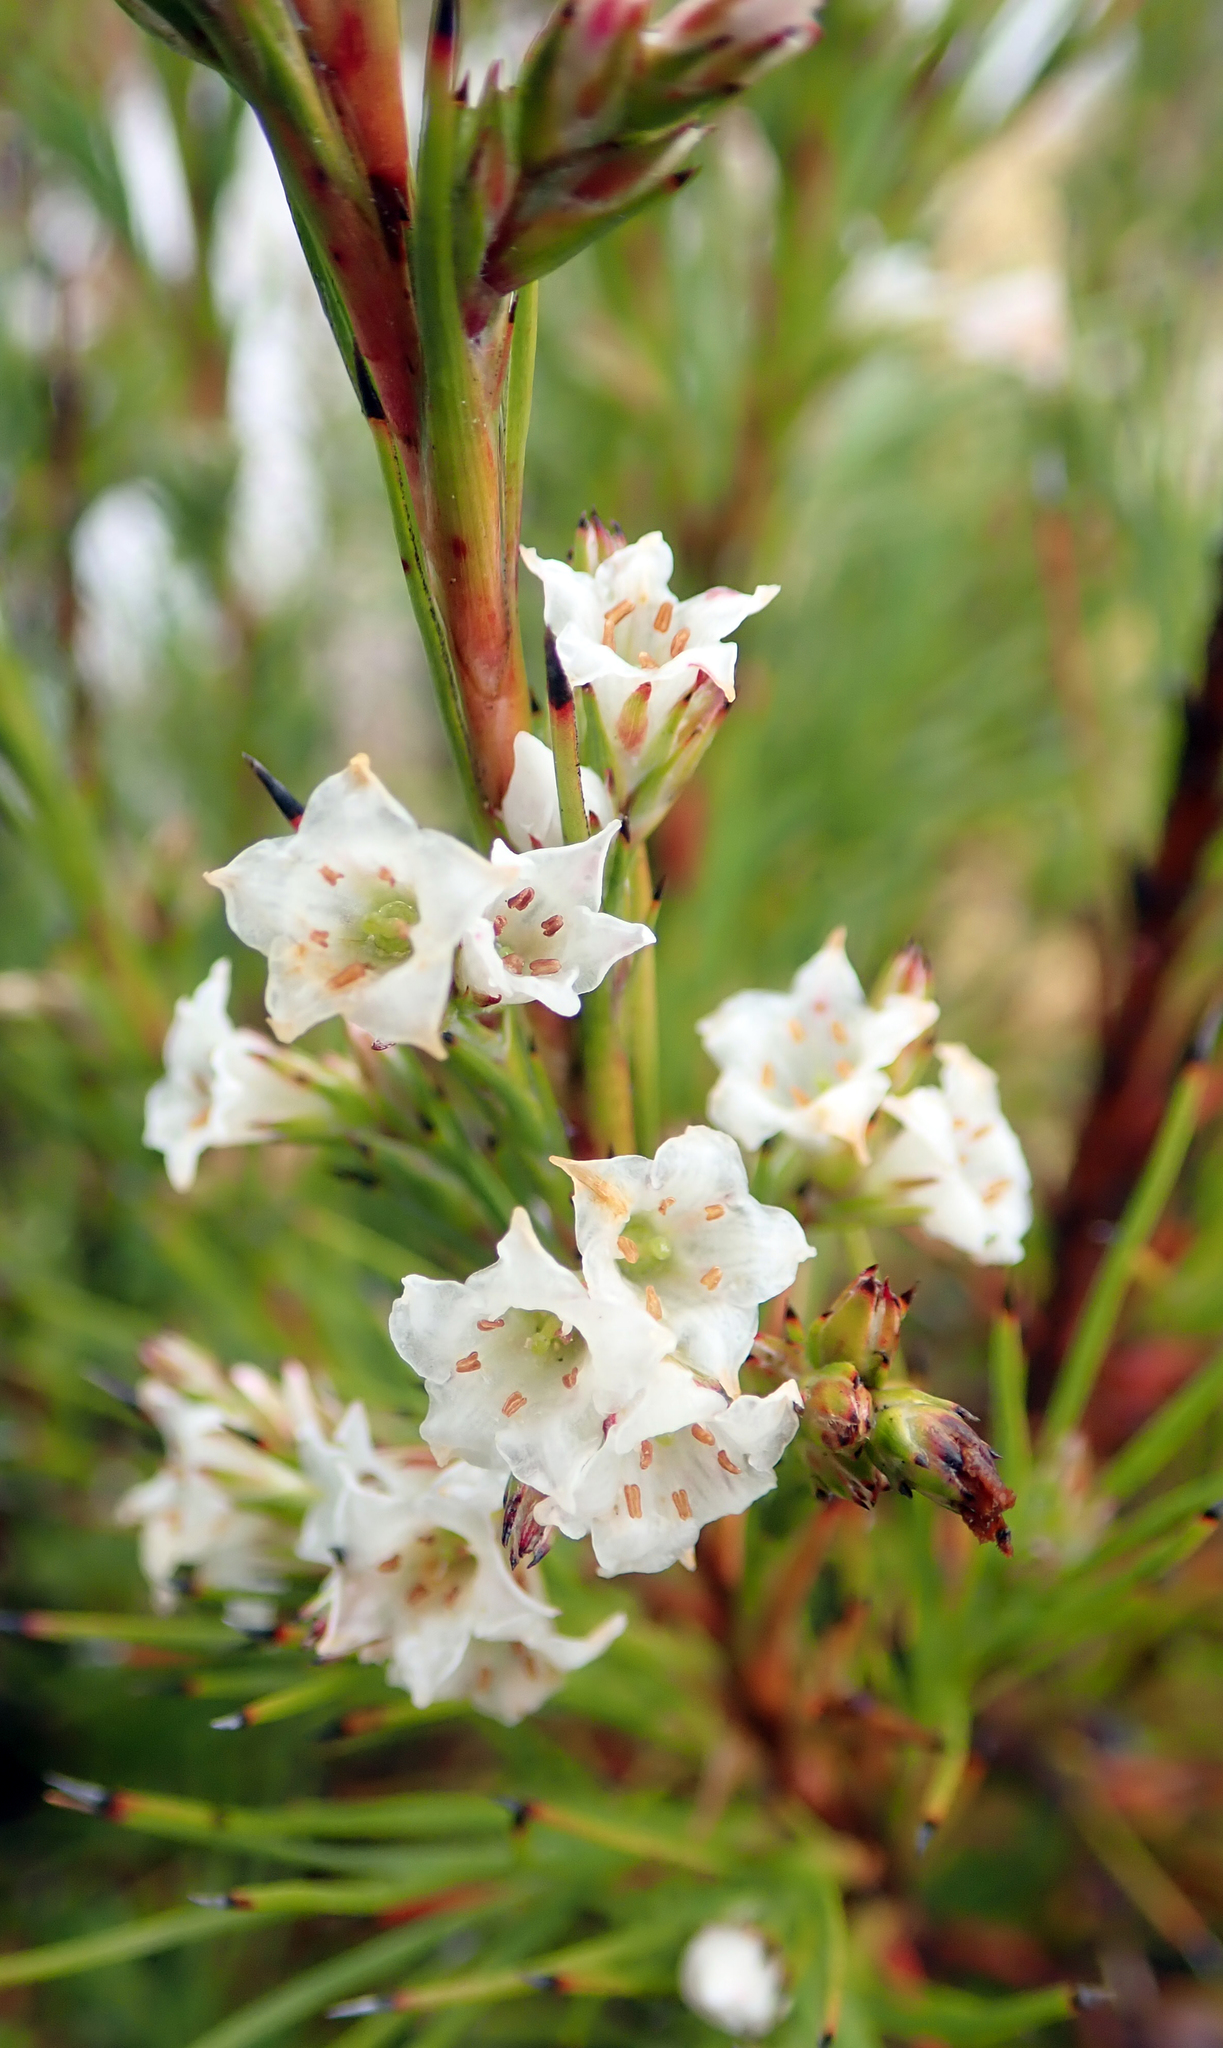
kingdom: Plantae
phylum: Tracheophyta
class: Magnoliopsida
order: Ericales
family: Ericaceae
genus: Dracophyllum
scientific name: Dracophyllum scoparium
